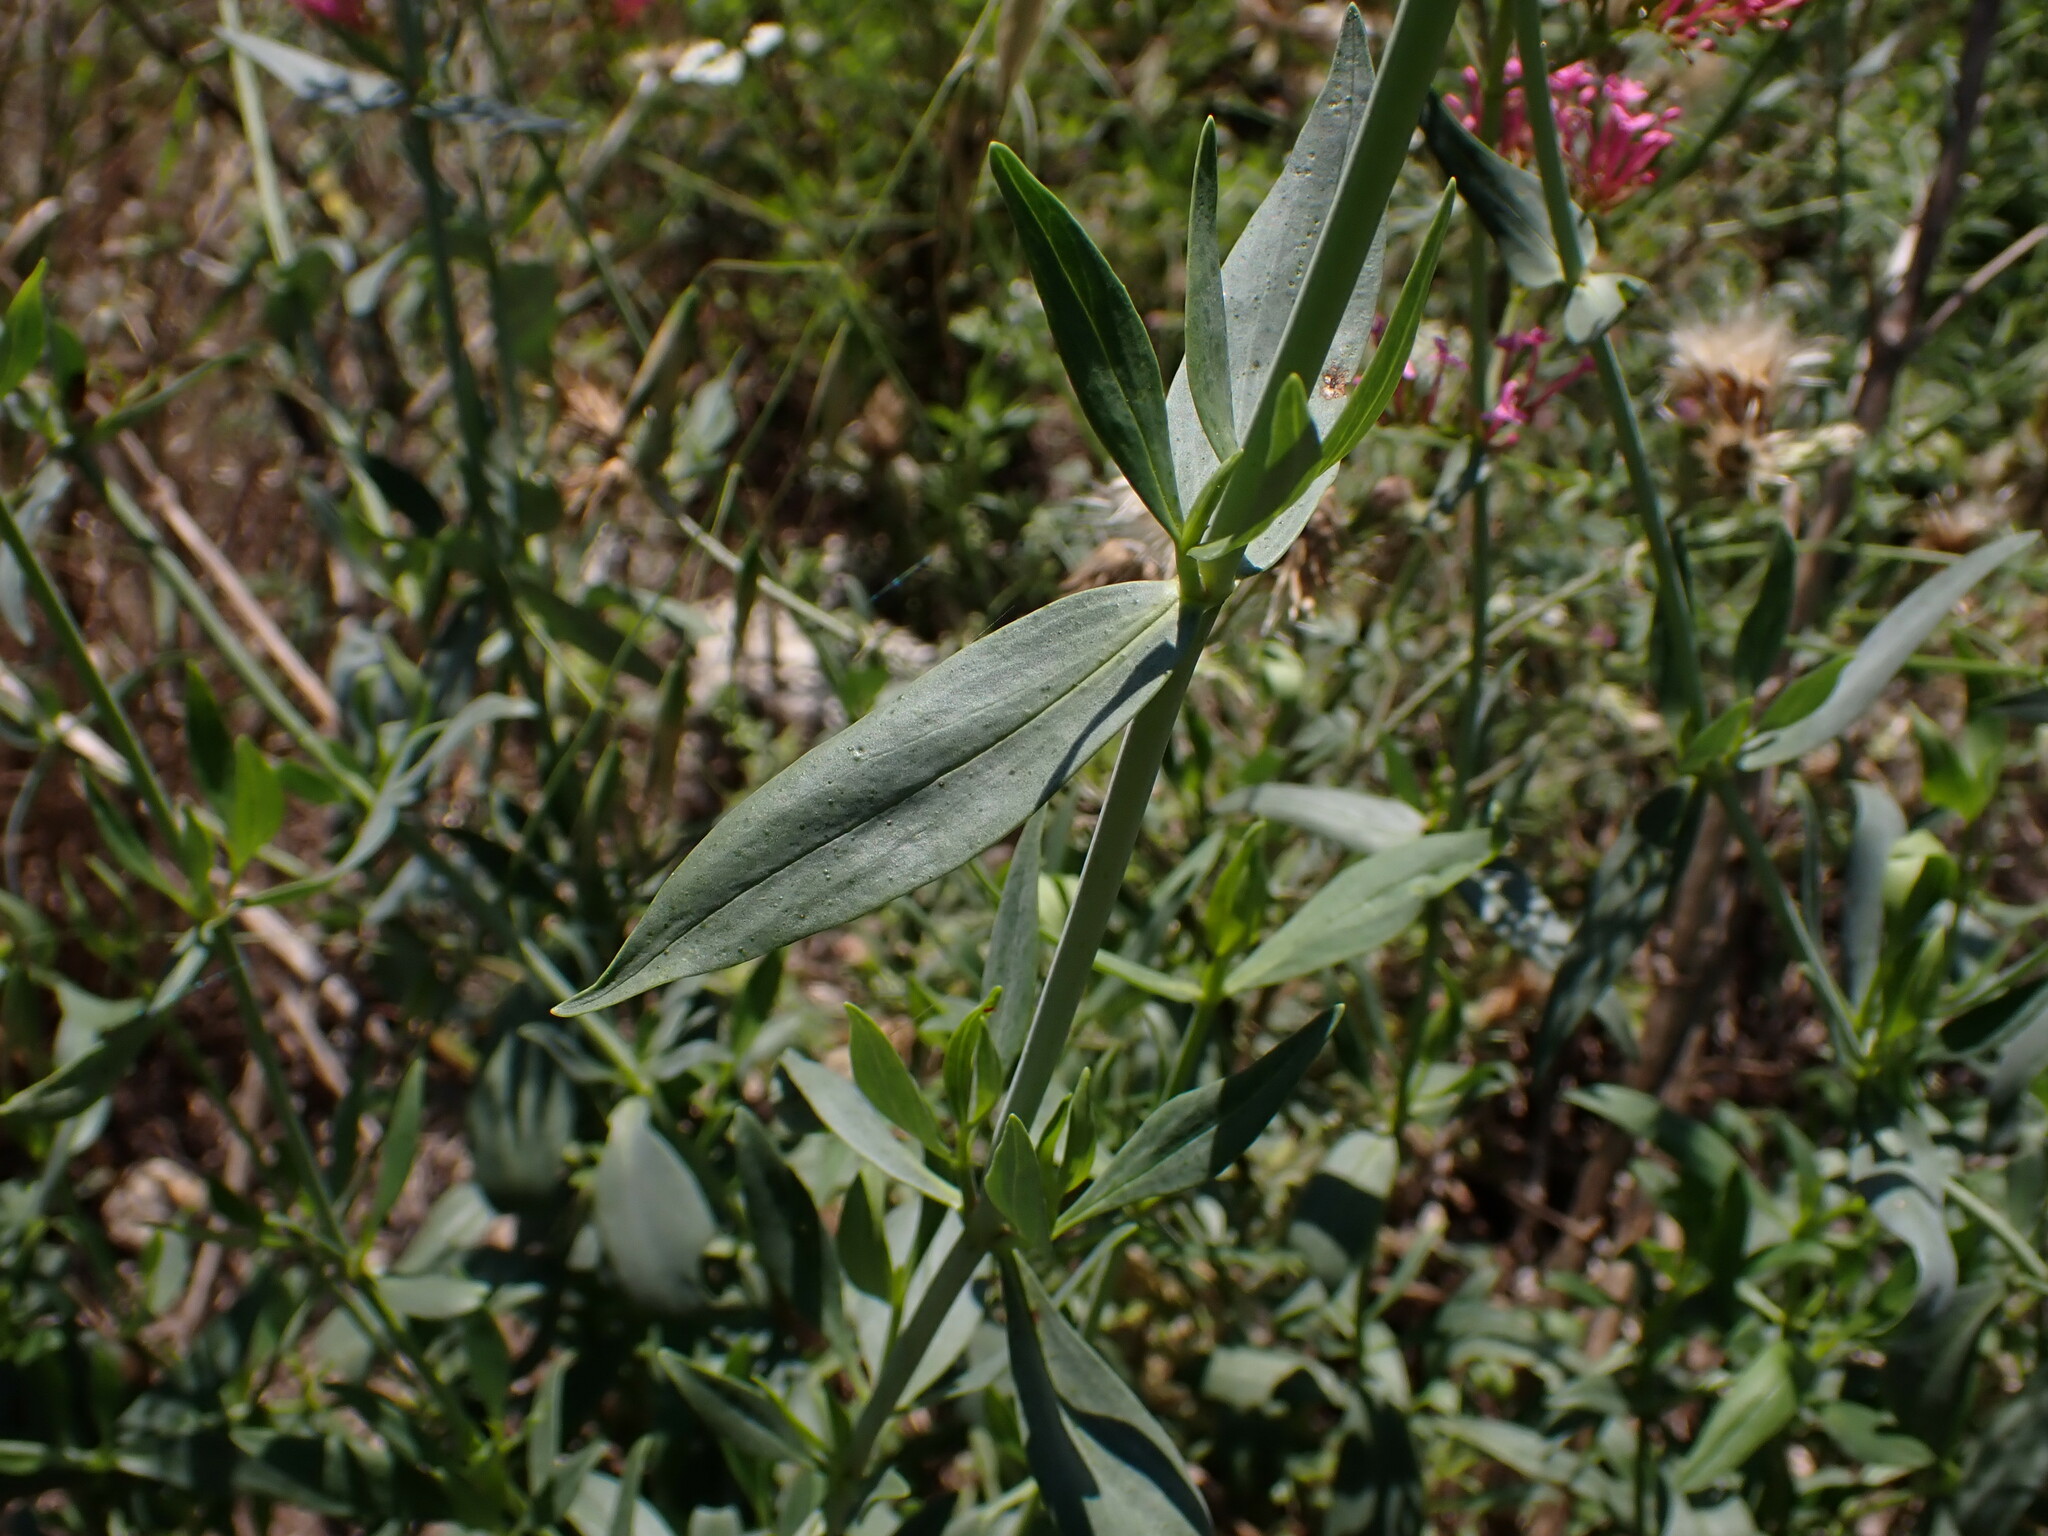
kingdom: Plantae
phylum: Tracheophyta
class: Magnoliopsida
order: Dipsacales
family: Caprifoliaceae
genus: Centranthus
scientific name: Centranthus ruber
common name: Red valerian
